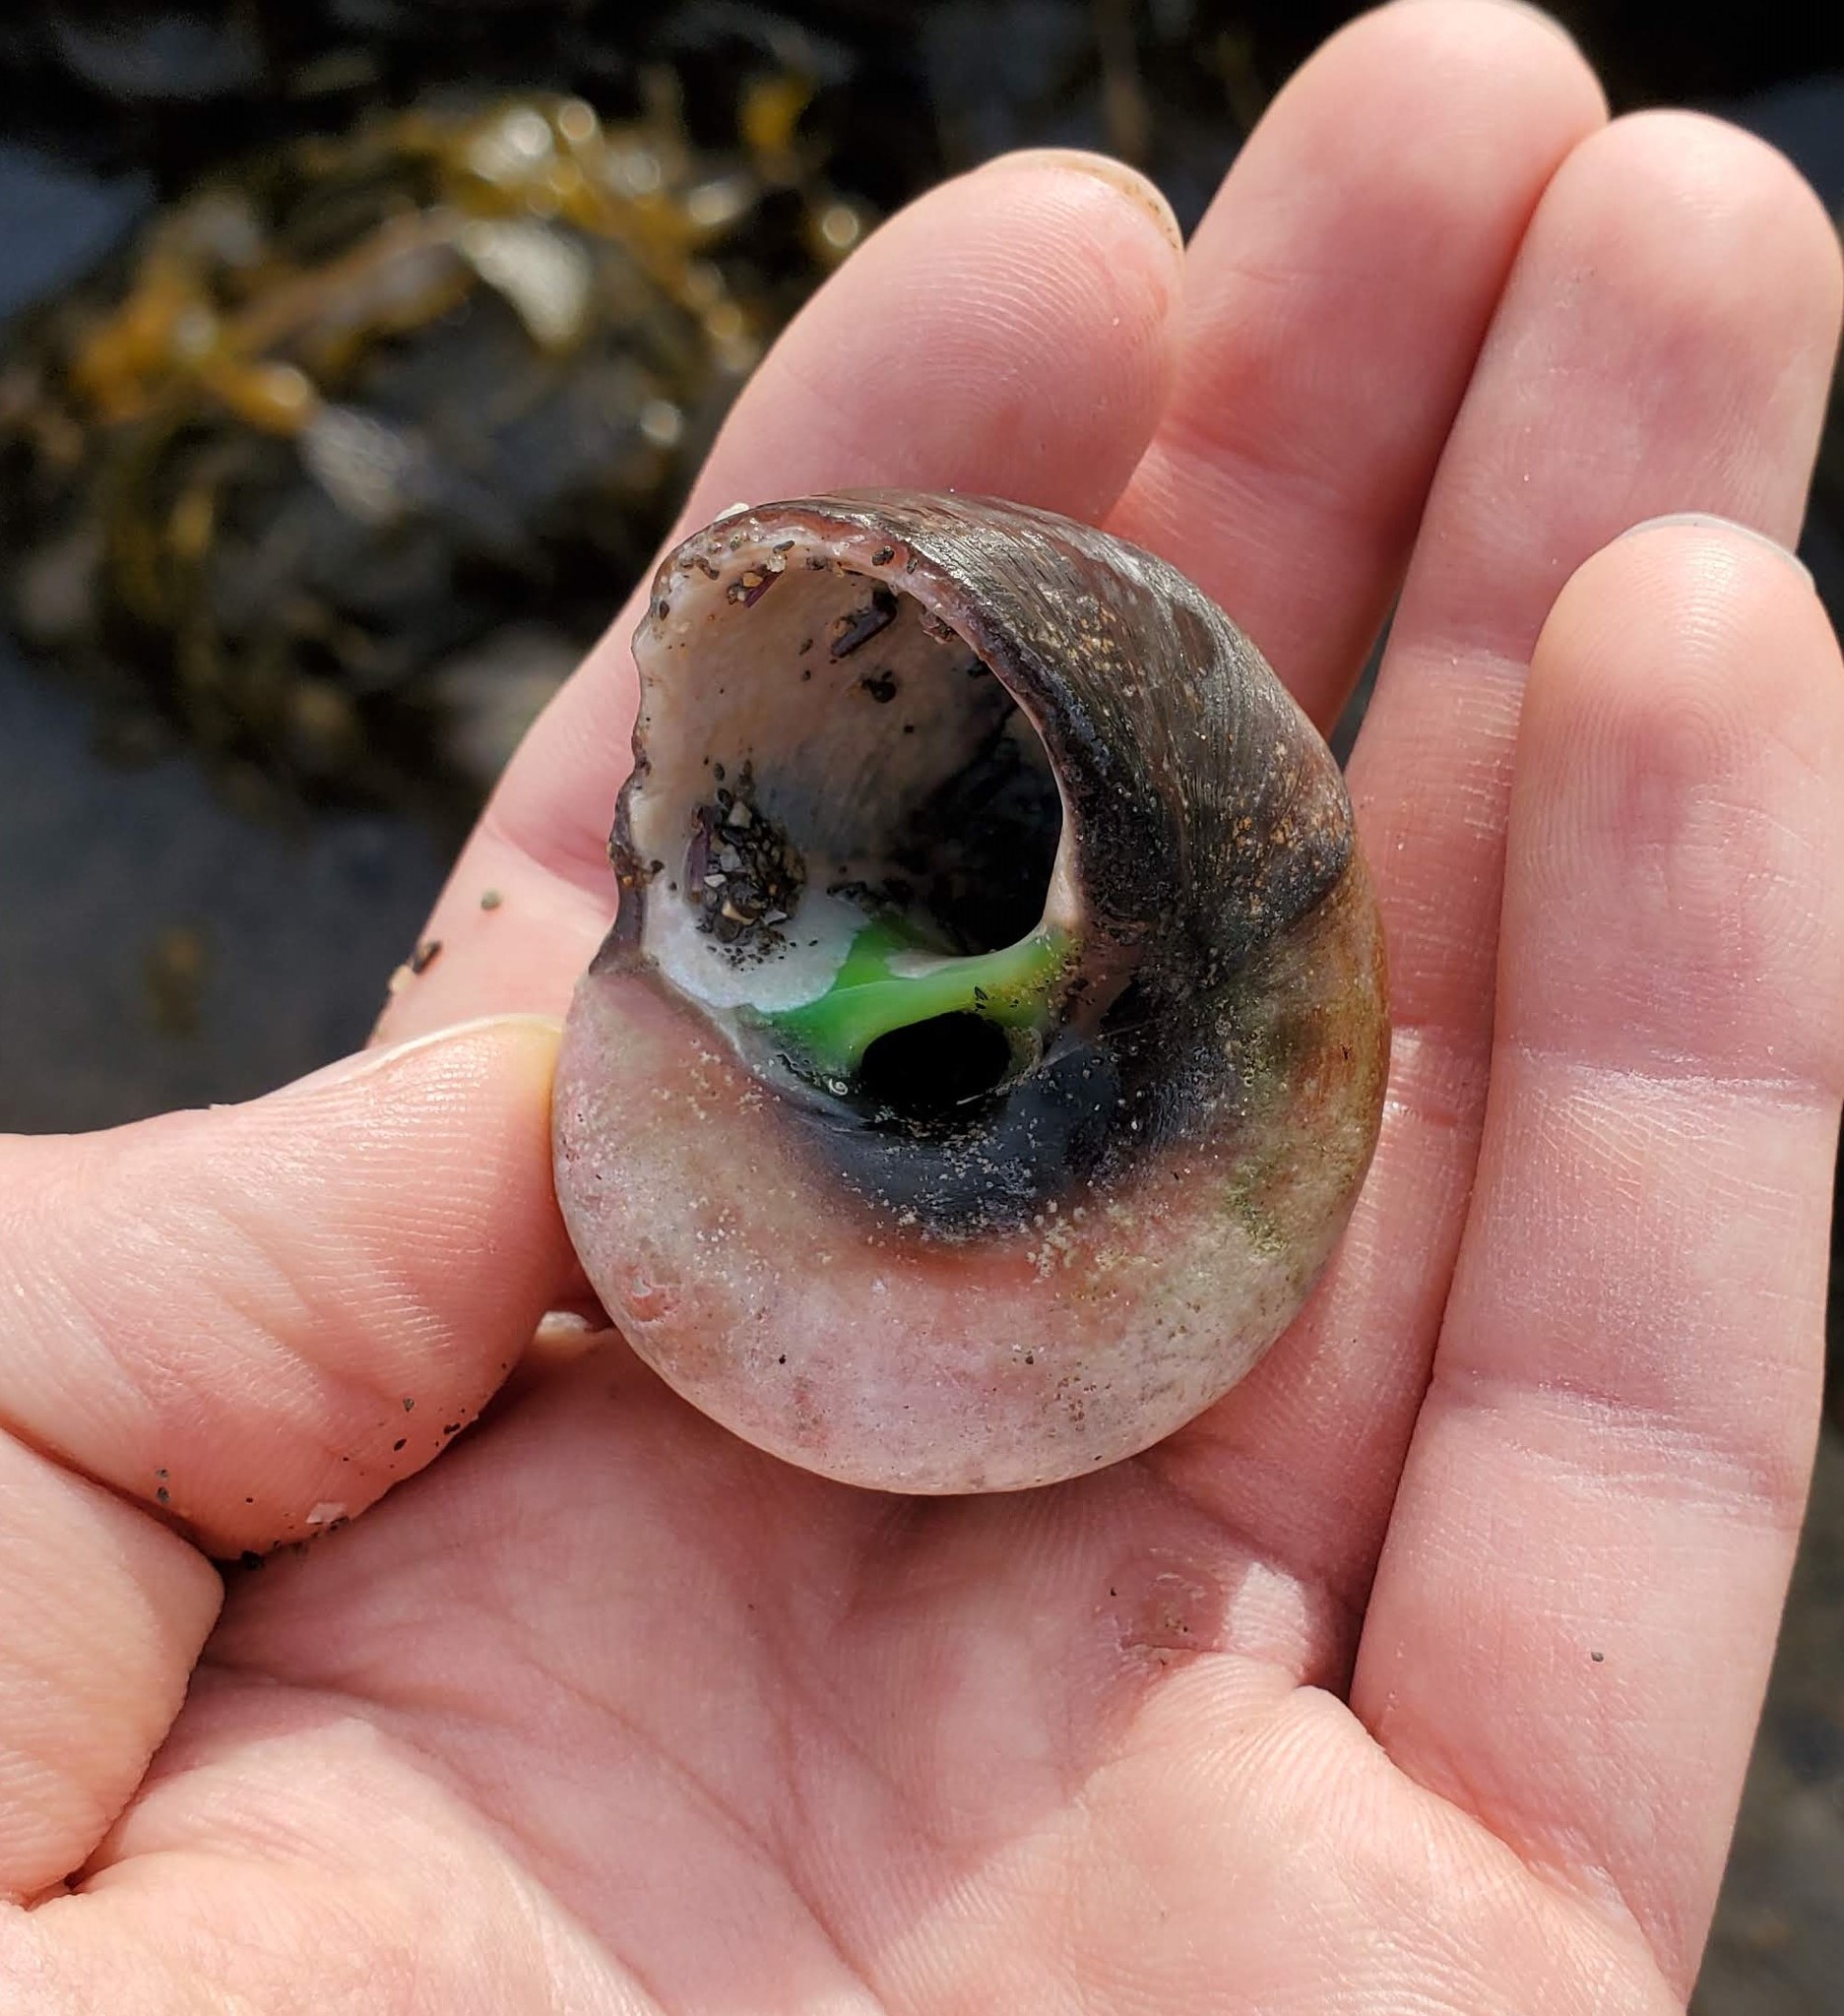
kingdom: Animalia
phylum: Mollusca
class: Gastropoda
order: Trochida
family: Tegulidae
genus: Norrisia
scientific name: Norrisia norrisii
